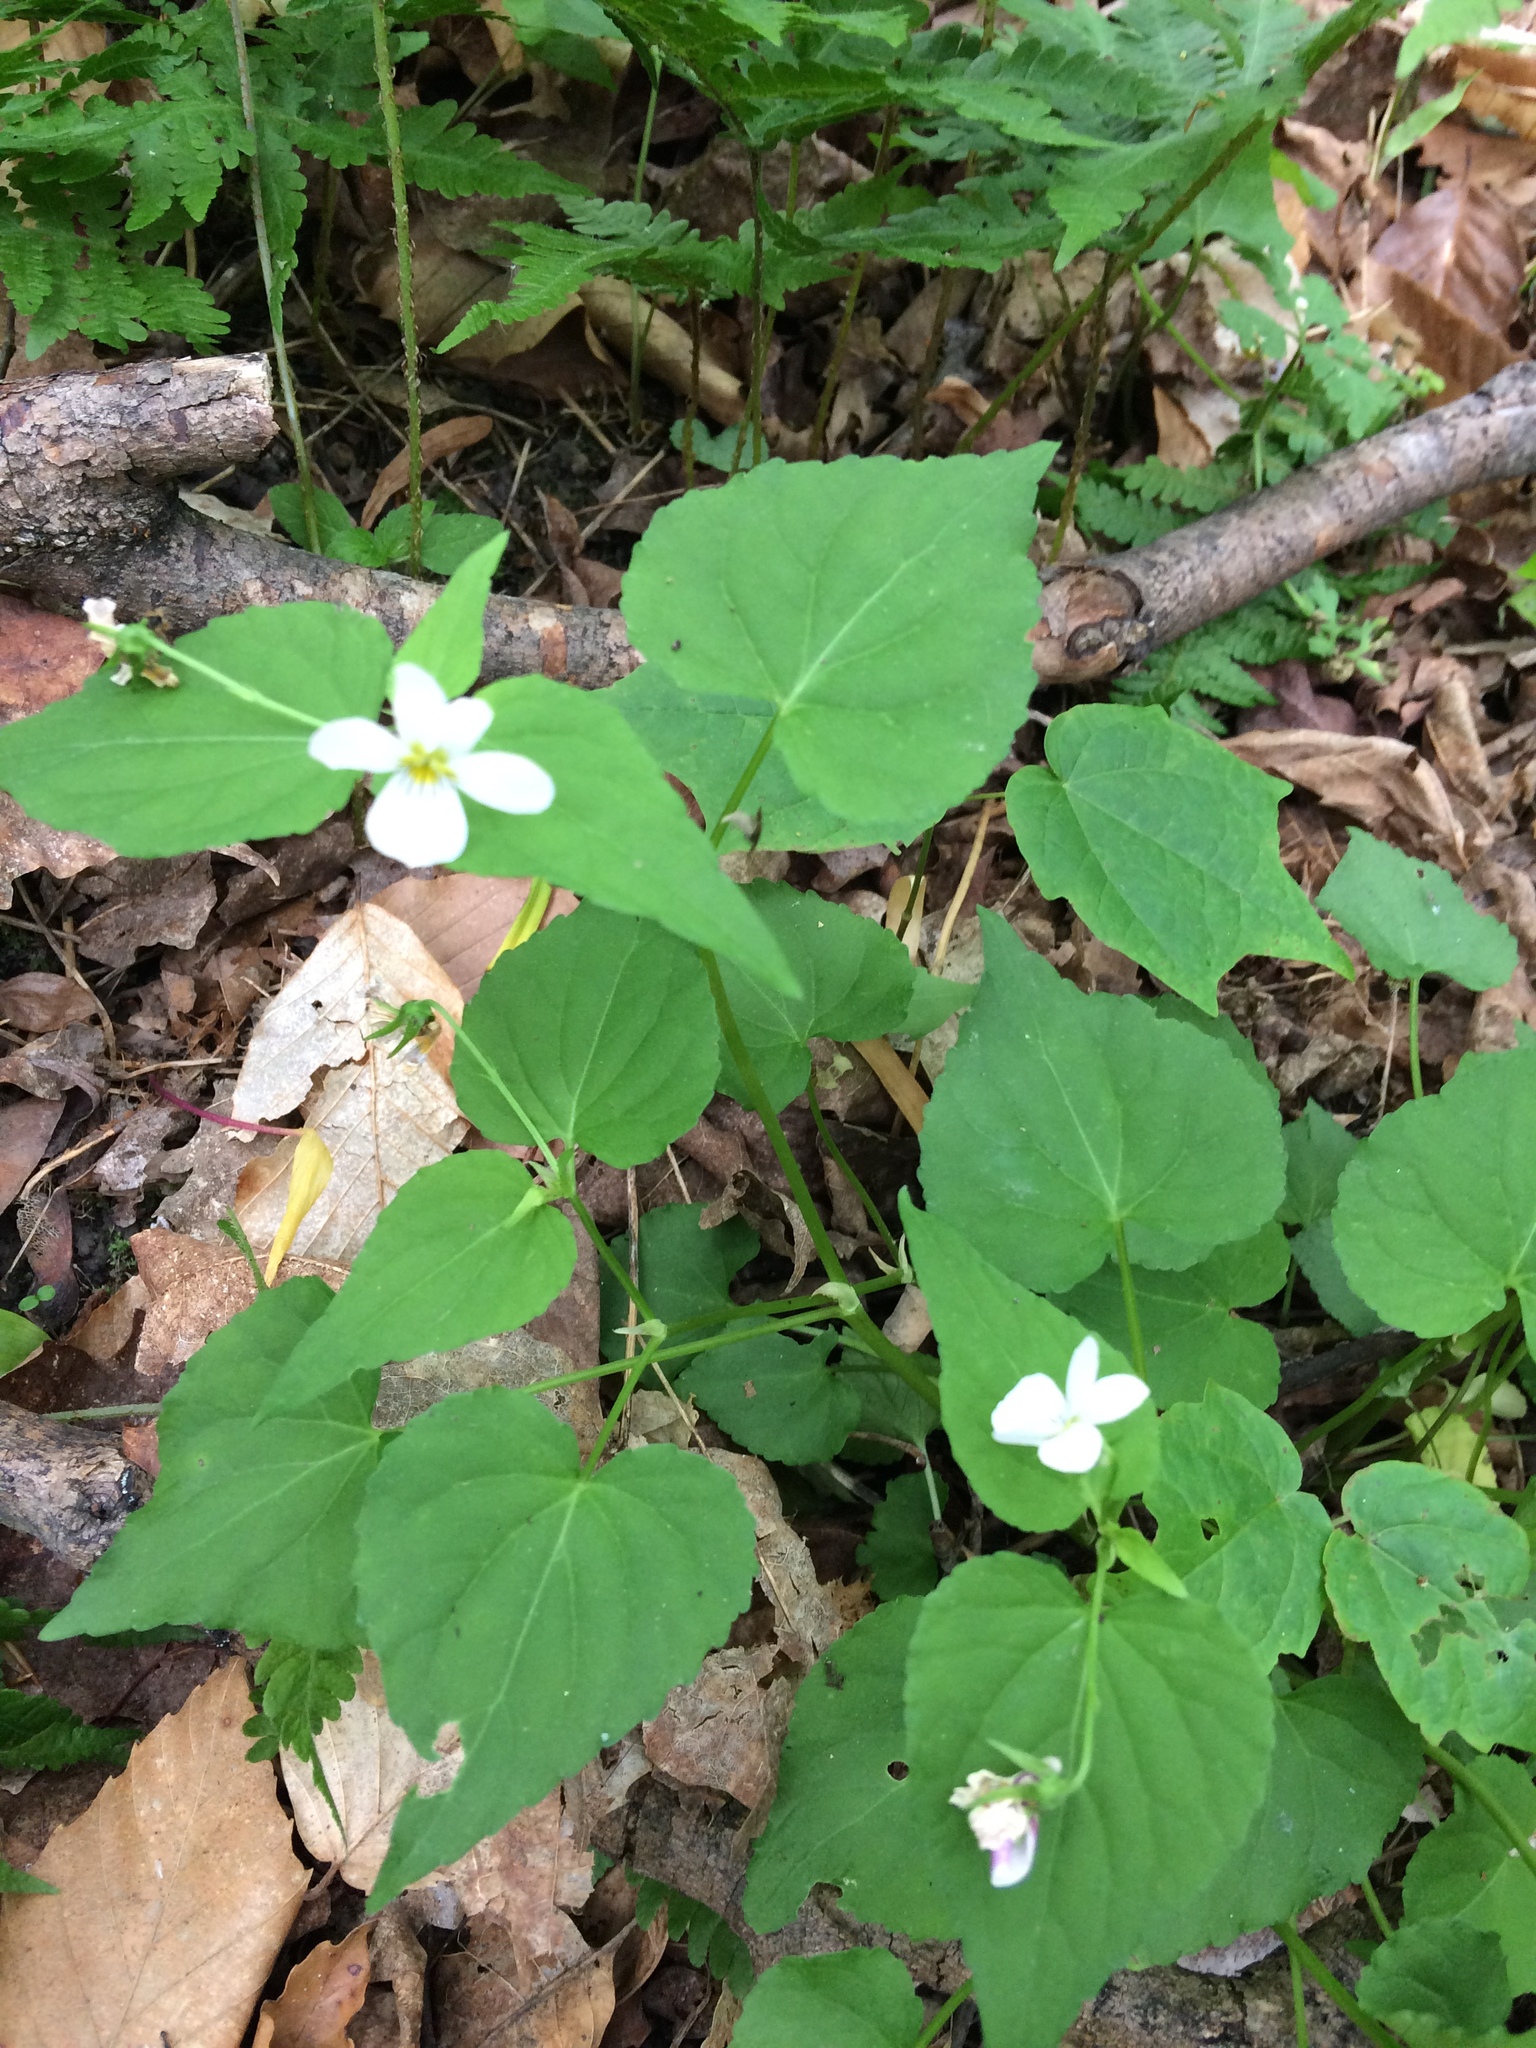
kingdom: Plantae
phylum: Tracheophyta
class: Magnoliopsida
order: Malpighiales
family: Violaceae
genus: Viola
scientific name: Viola canadensis
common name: Canada violet
